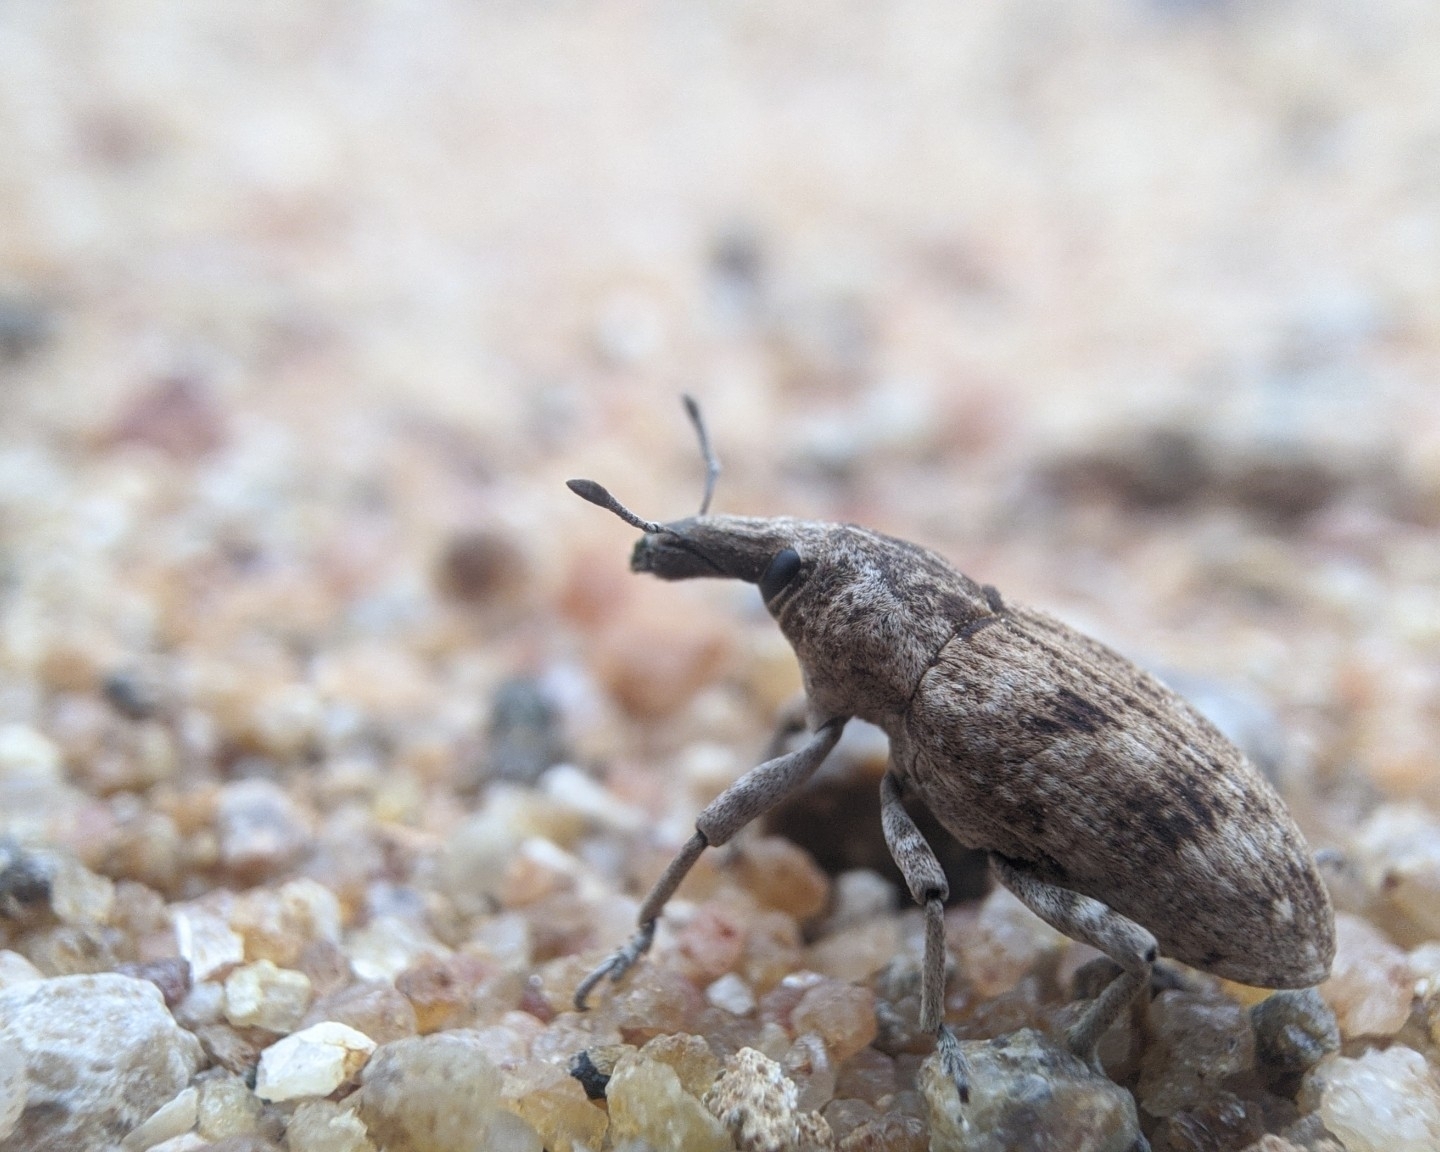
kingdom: Animalia
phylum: Arthropoda
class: Insecta
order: Coleoptera
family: Curculionidae
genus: Cleonus
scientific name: Cleonus maculipes
